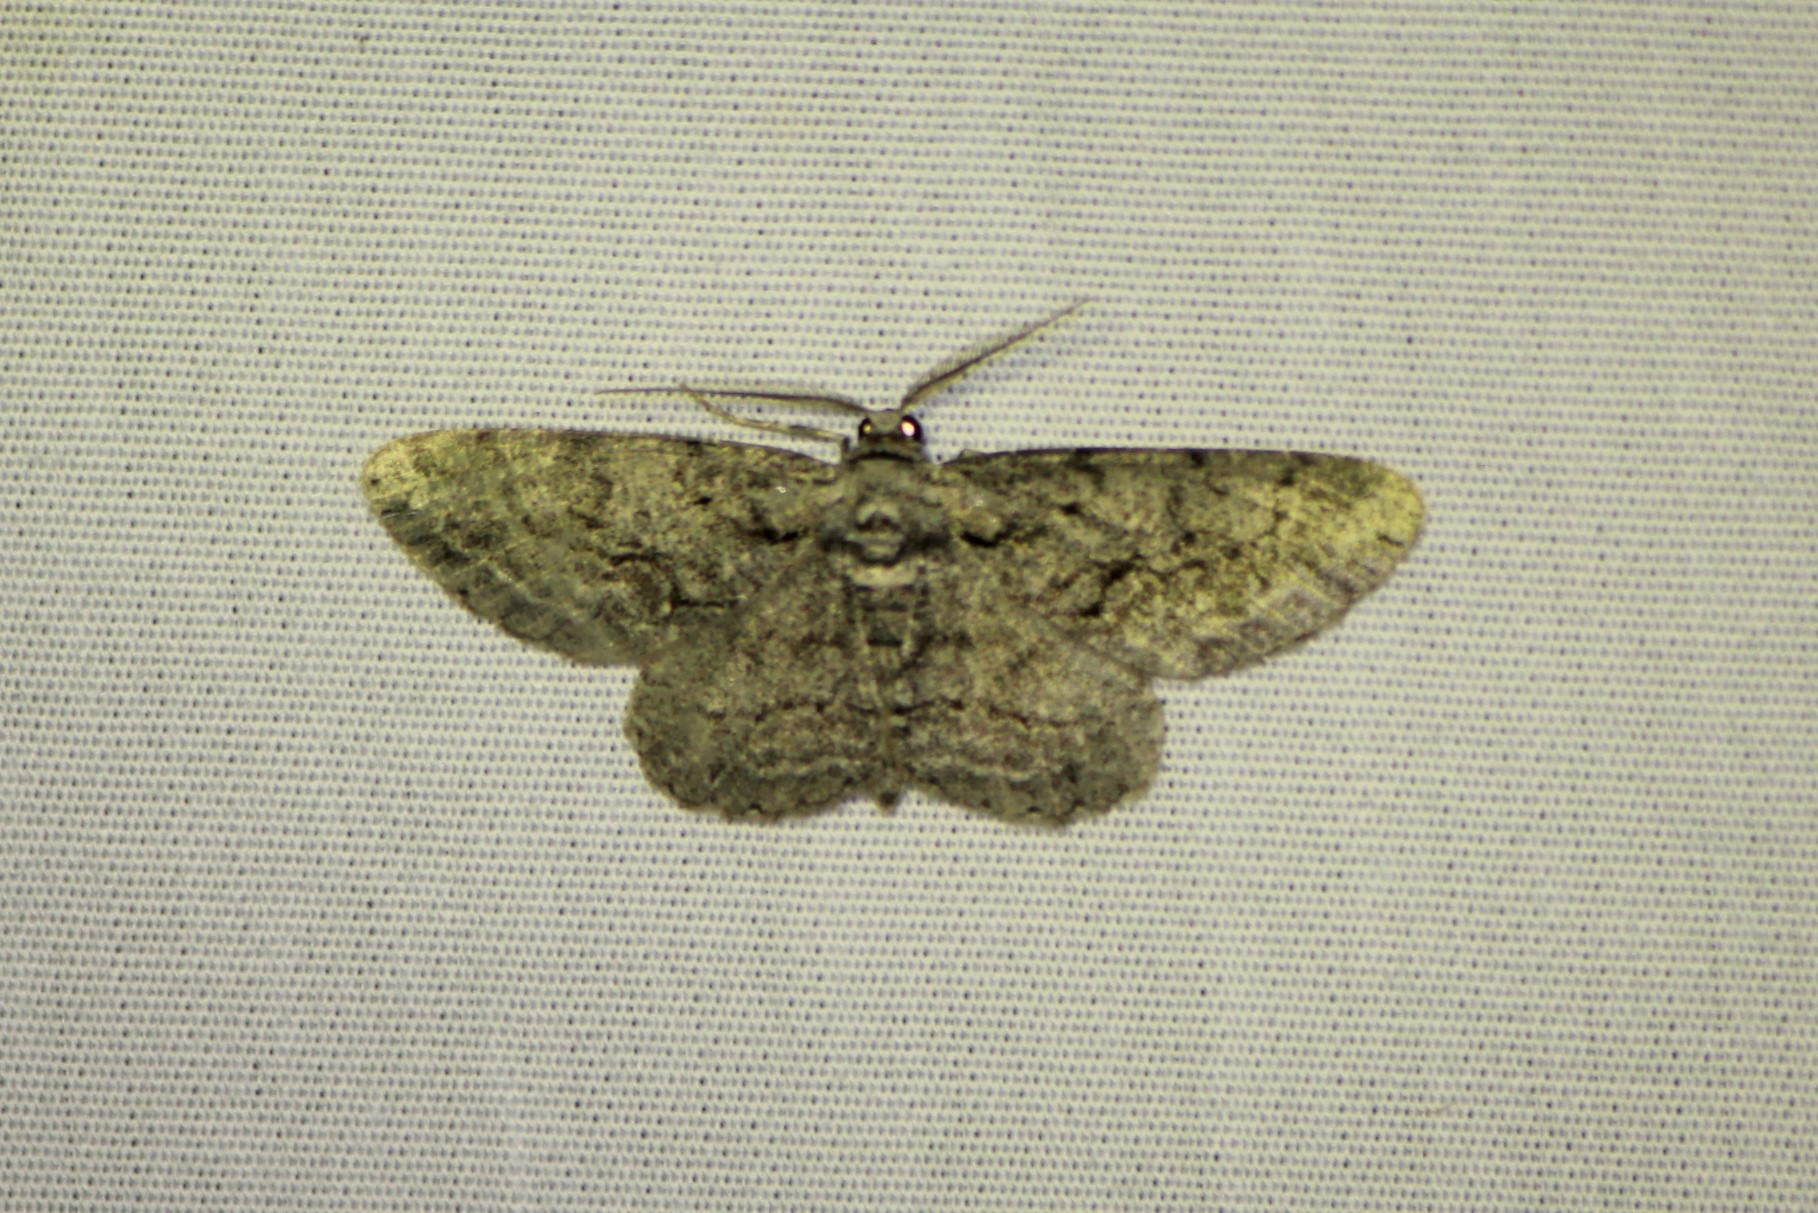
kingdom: Animalia
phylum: Arthropoda
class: Insecta
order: Lepidoptera
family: Geometridae
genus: Anavitrinella
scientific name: Anavitrinella pampinaria
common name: Common gray
